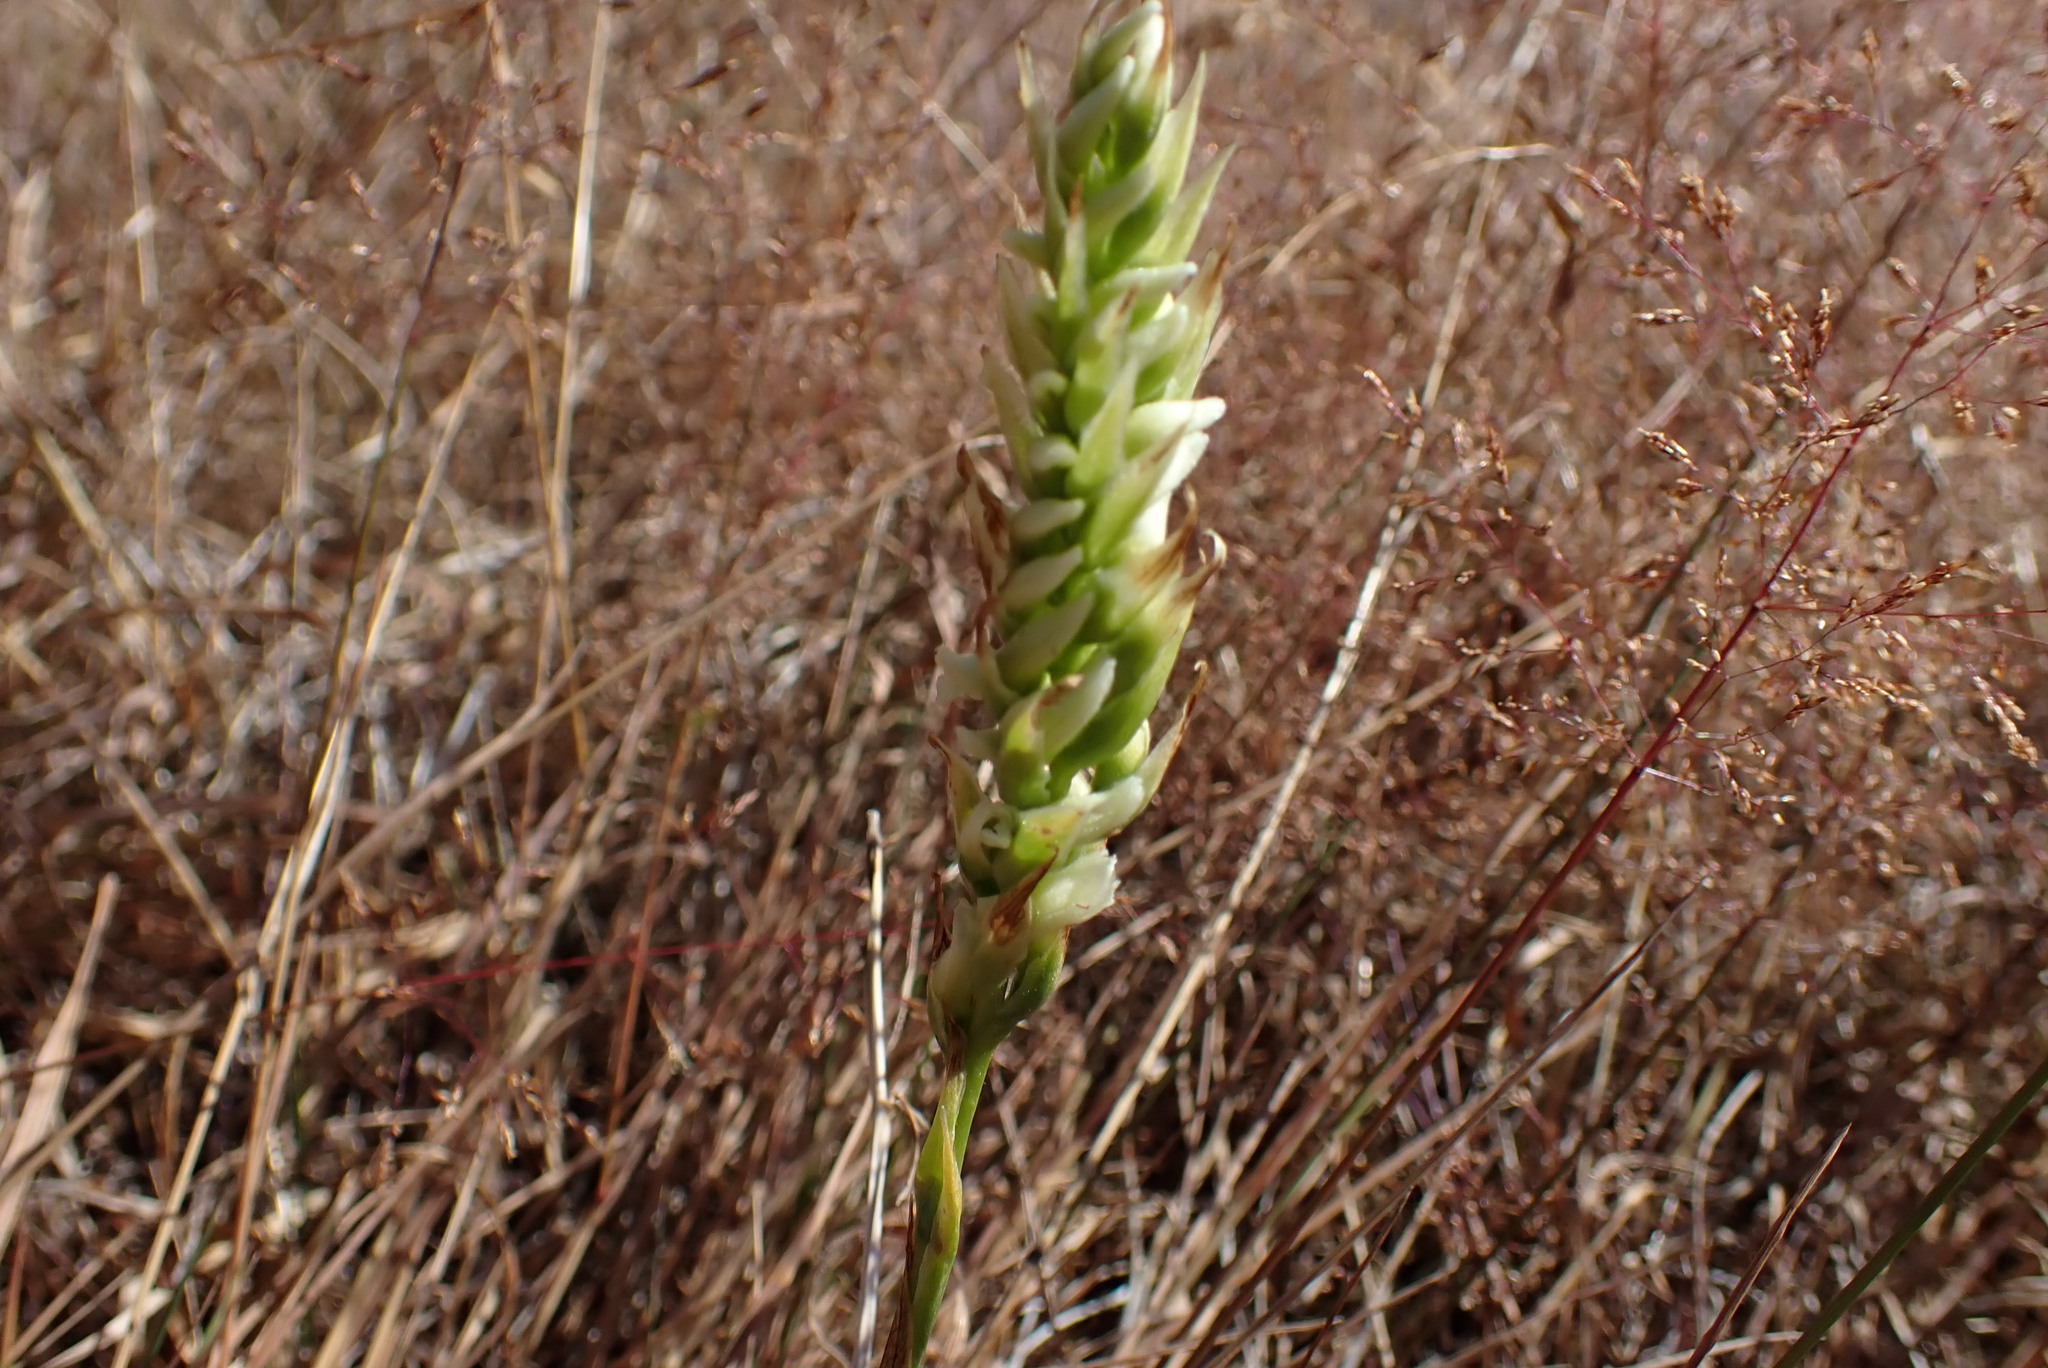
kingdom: Plantae
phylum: Tracheophyta
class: Liliopsida
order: Asparagales
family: Orchidaceae
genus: Spiranthes
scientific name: Spiranthes romanzoffiana
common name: Irish lady's-tresses
